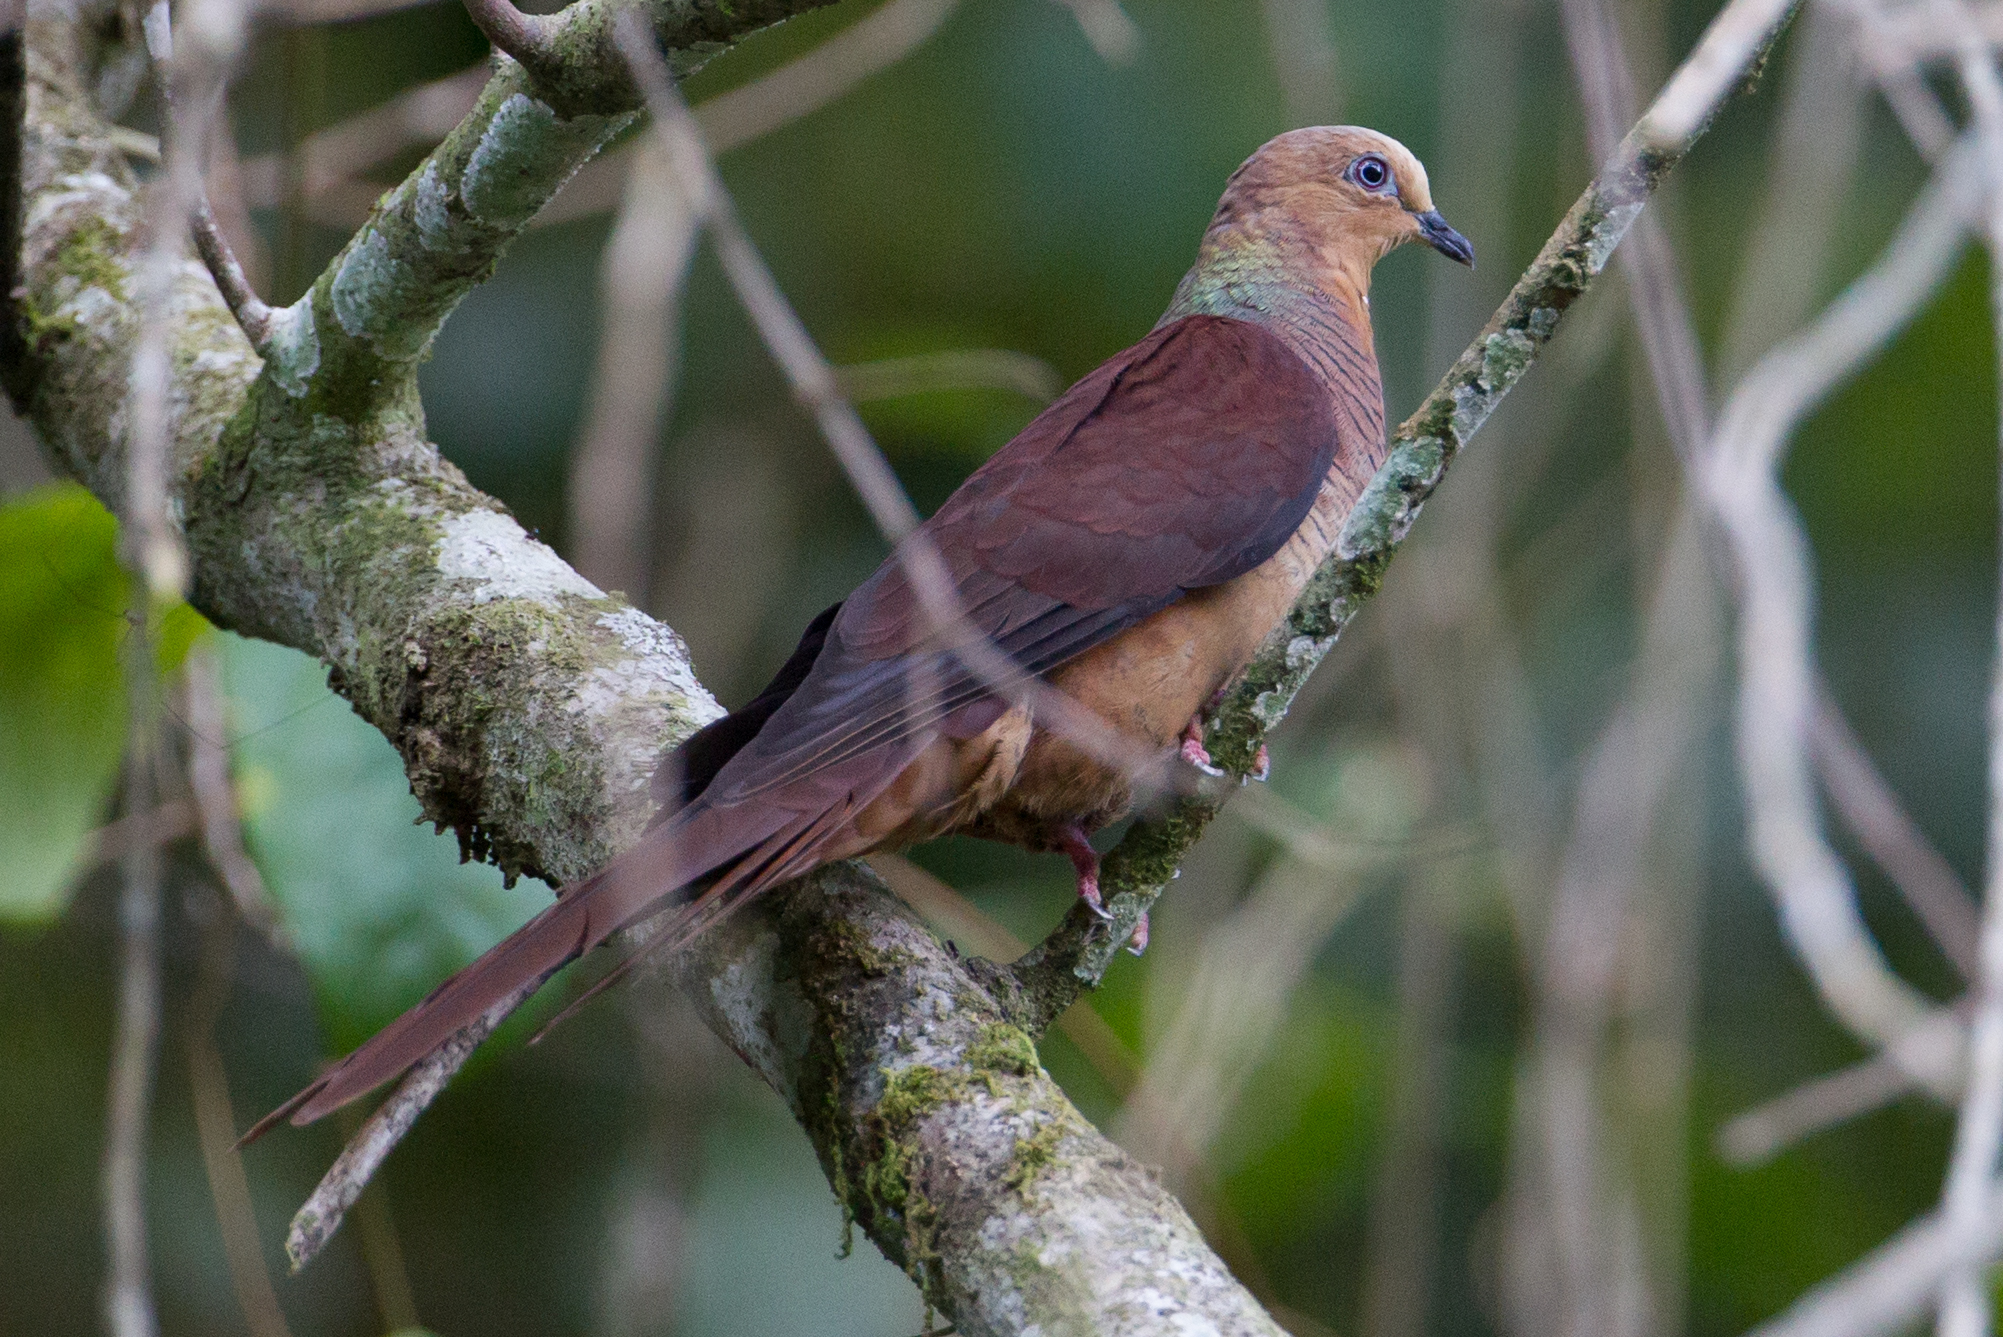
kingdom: Animalia
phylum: Chordata
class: Aves
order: Columbiformes
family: Columbidae
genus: Macropygia
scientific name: Macropygia doreya
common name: Sultan's cuckoo-dove
